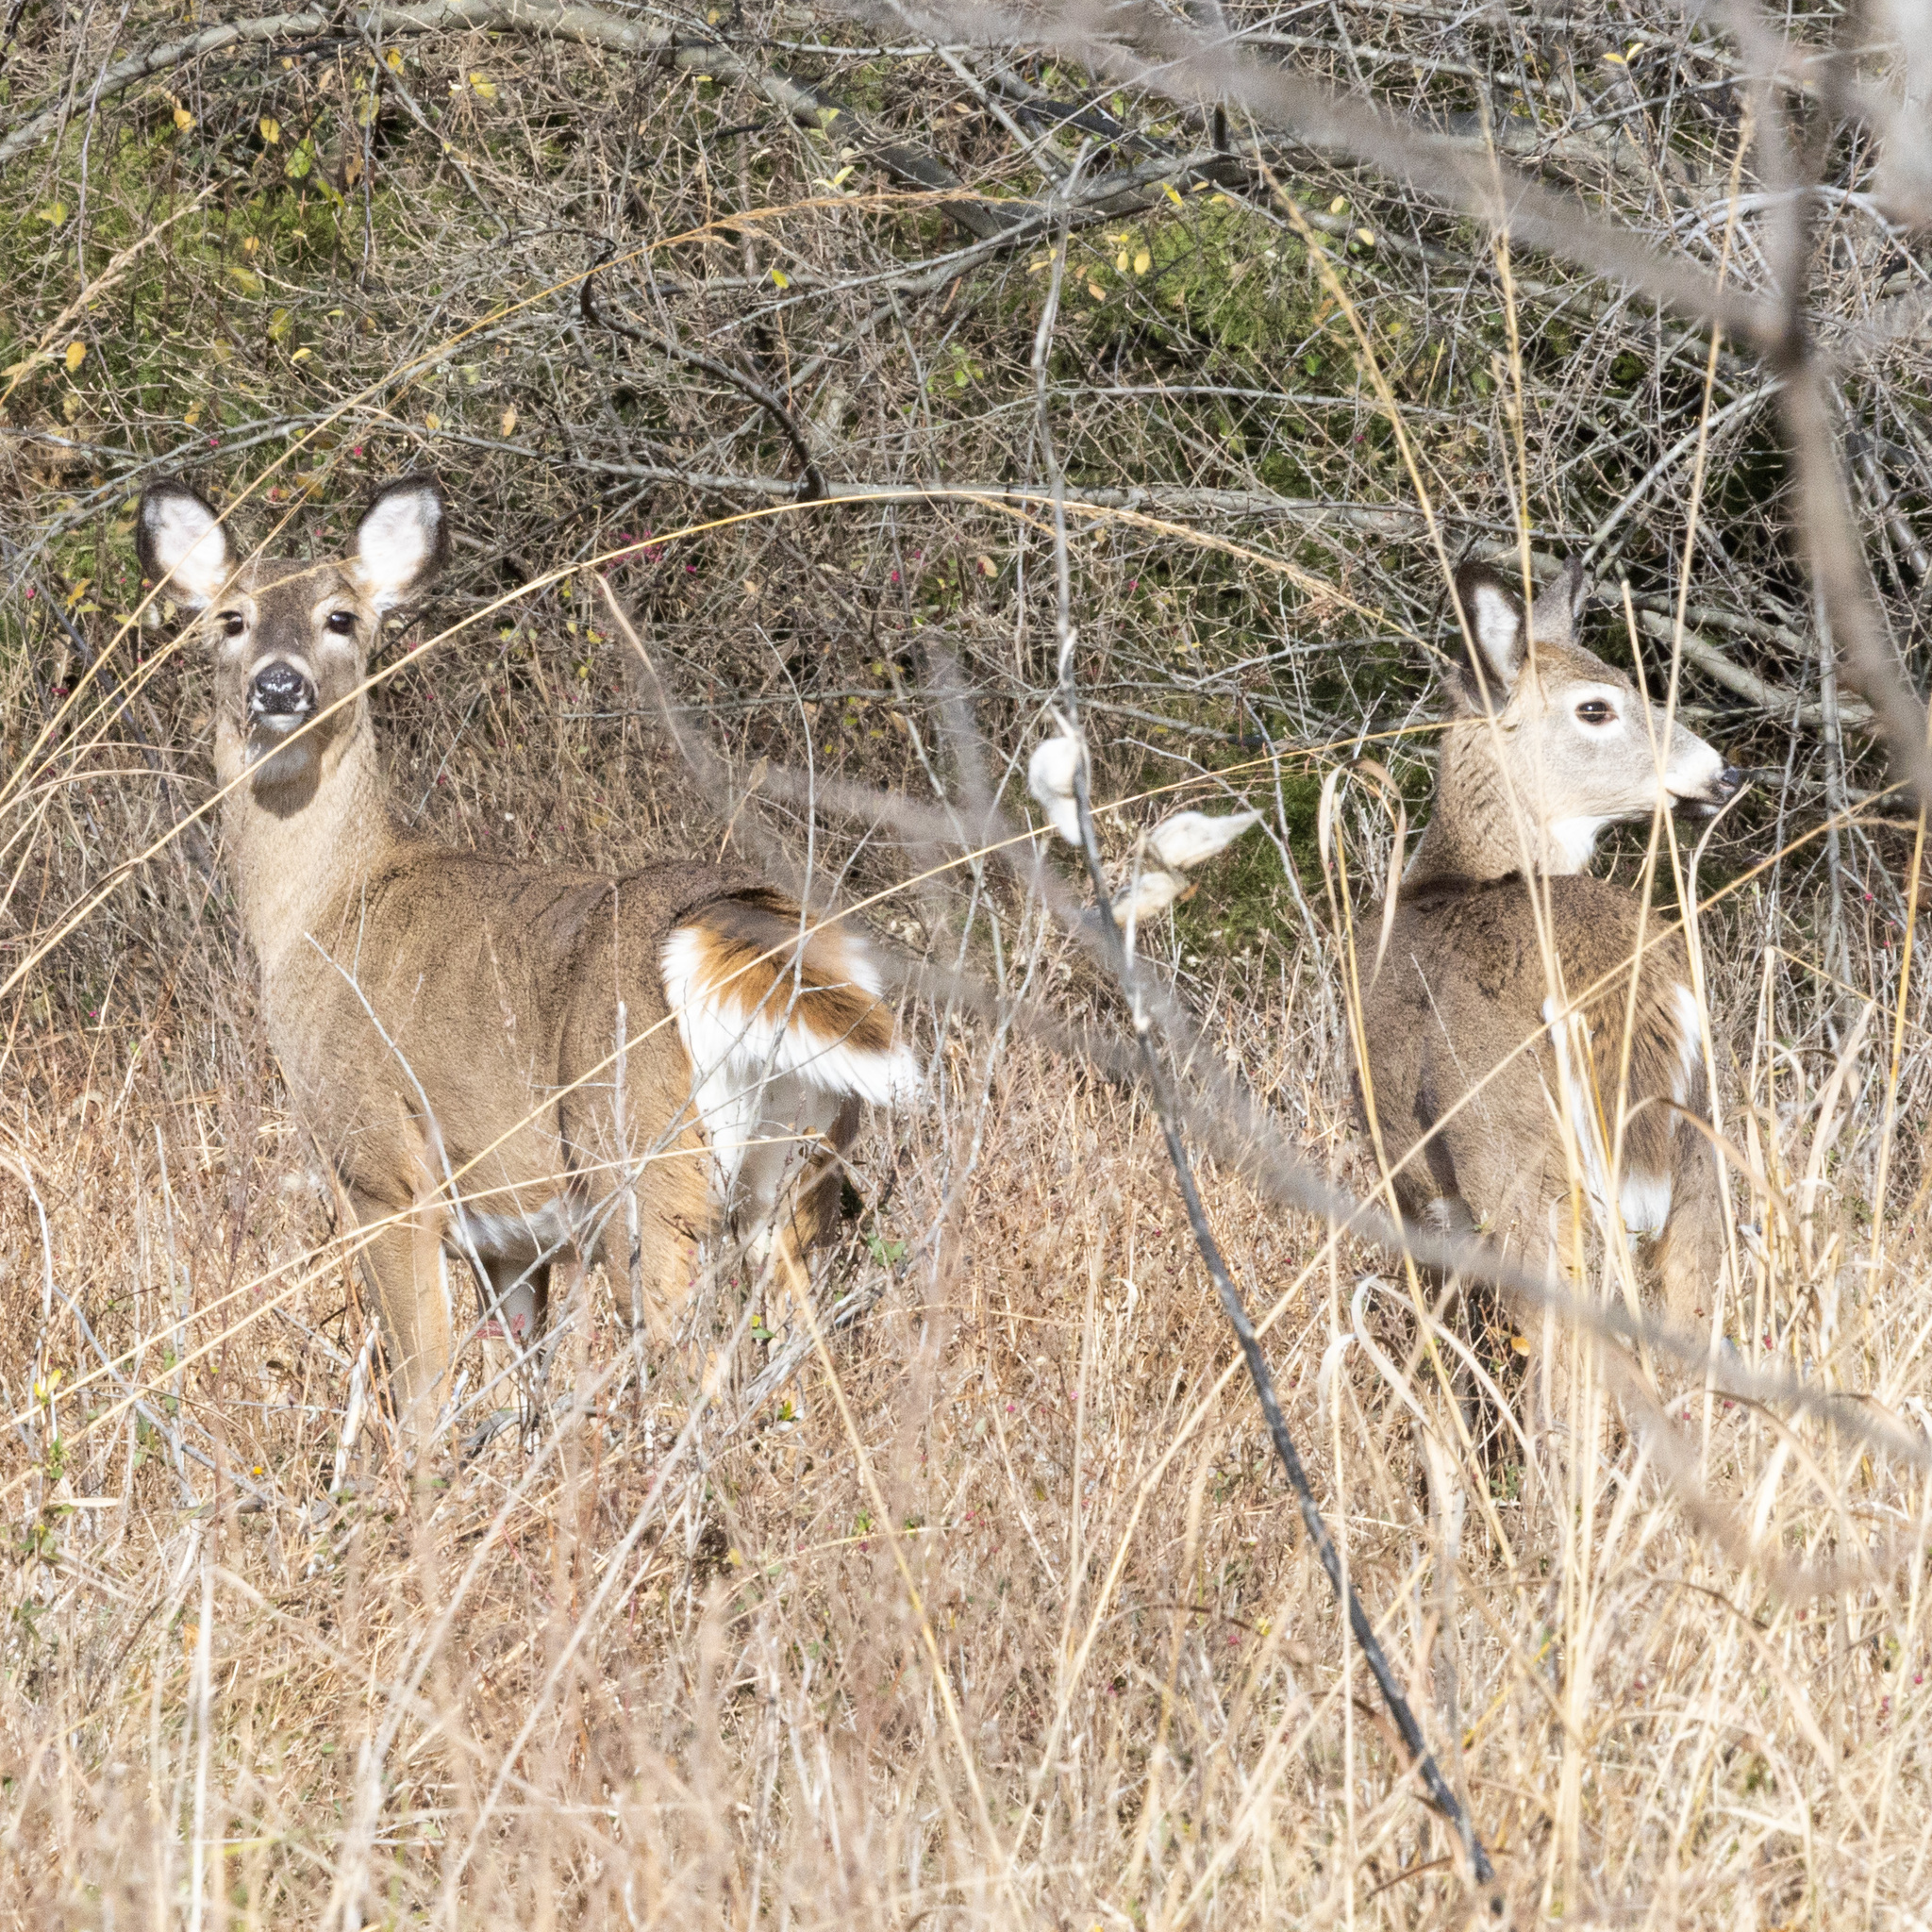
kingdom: Animalia
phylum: Chordata
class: Mammalia
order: Artiodactyla
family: Cervidae
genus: Odocoileus
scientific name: Odocoileus virginianus
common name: White-tailed deer
